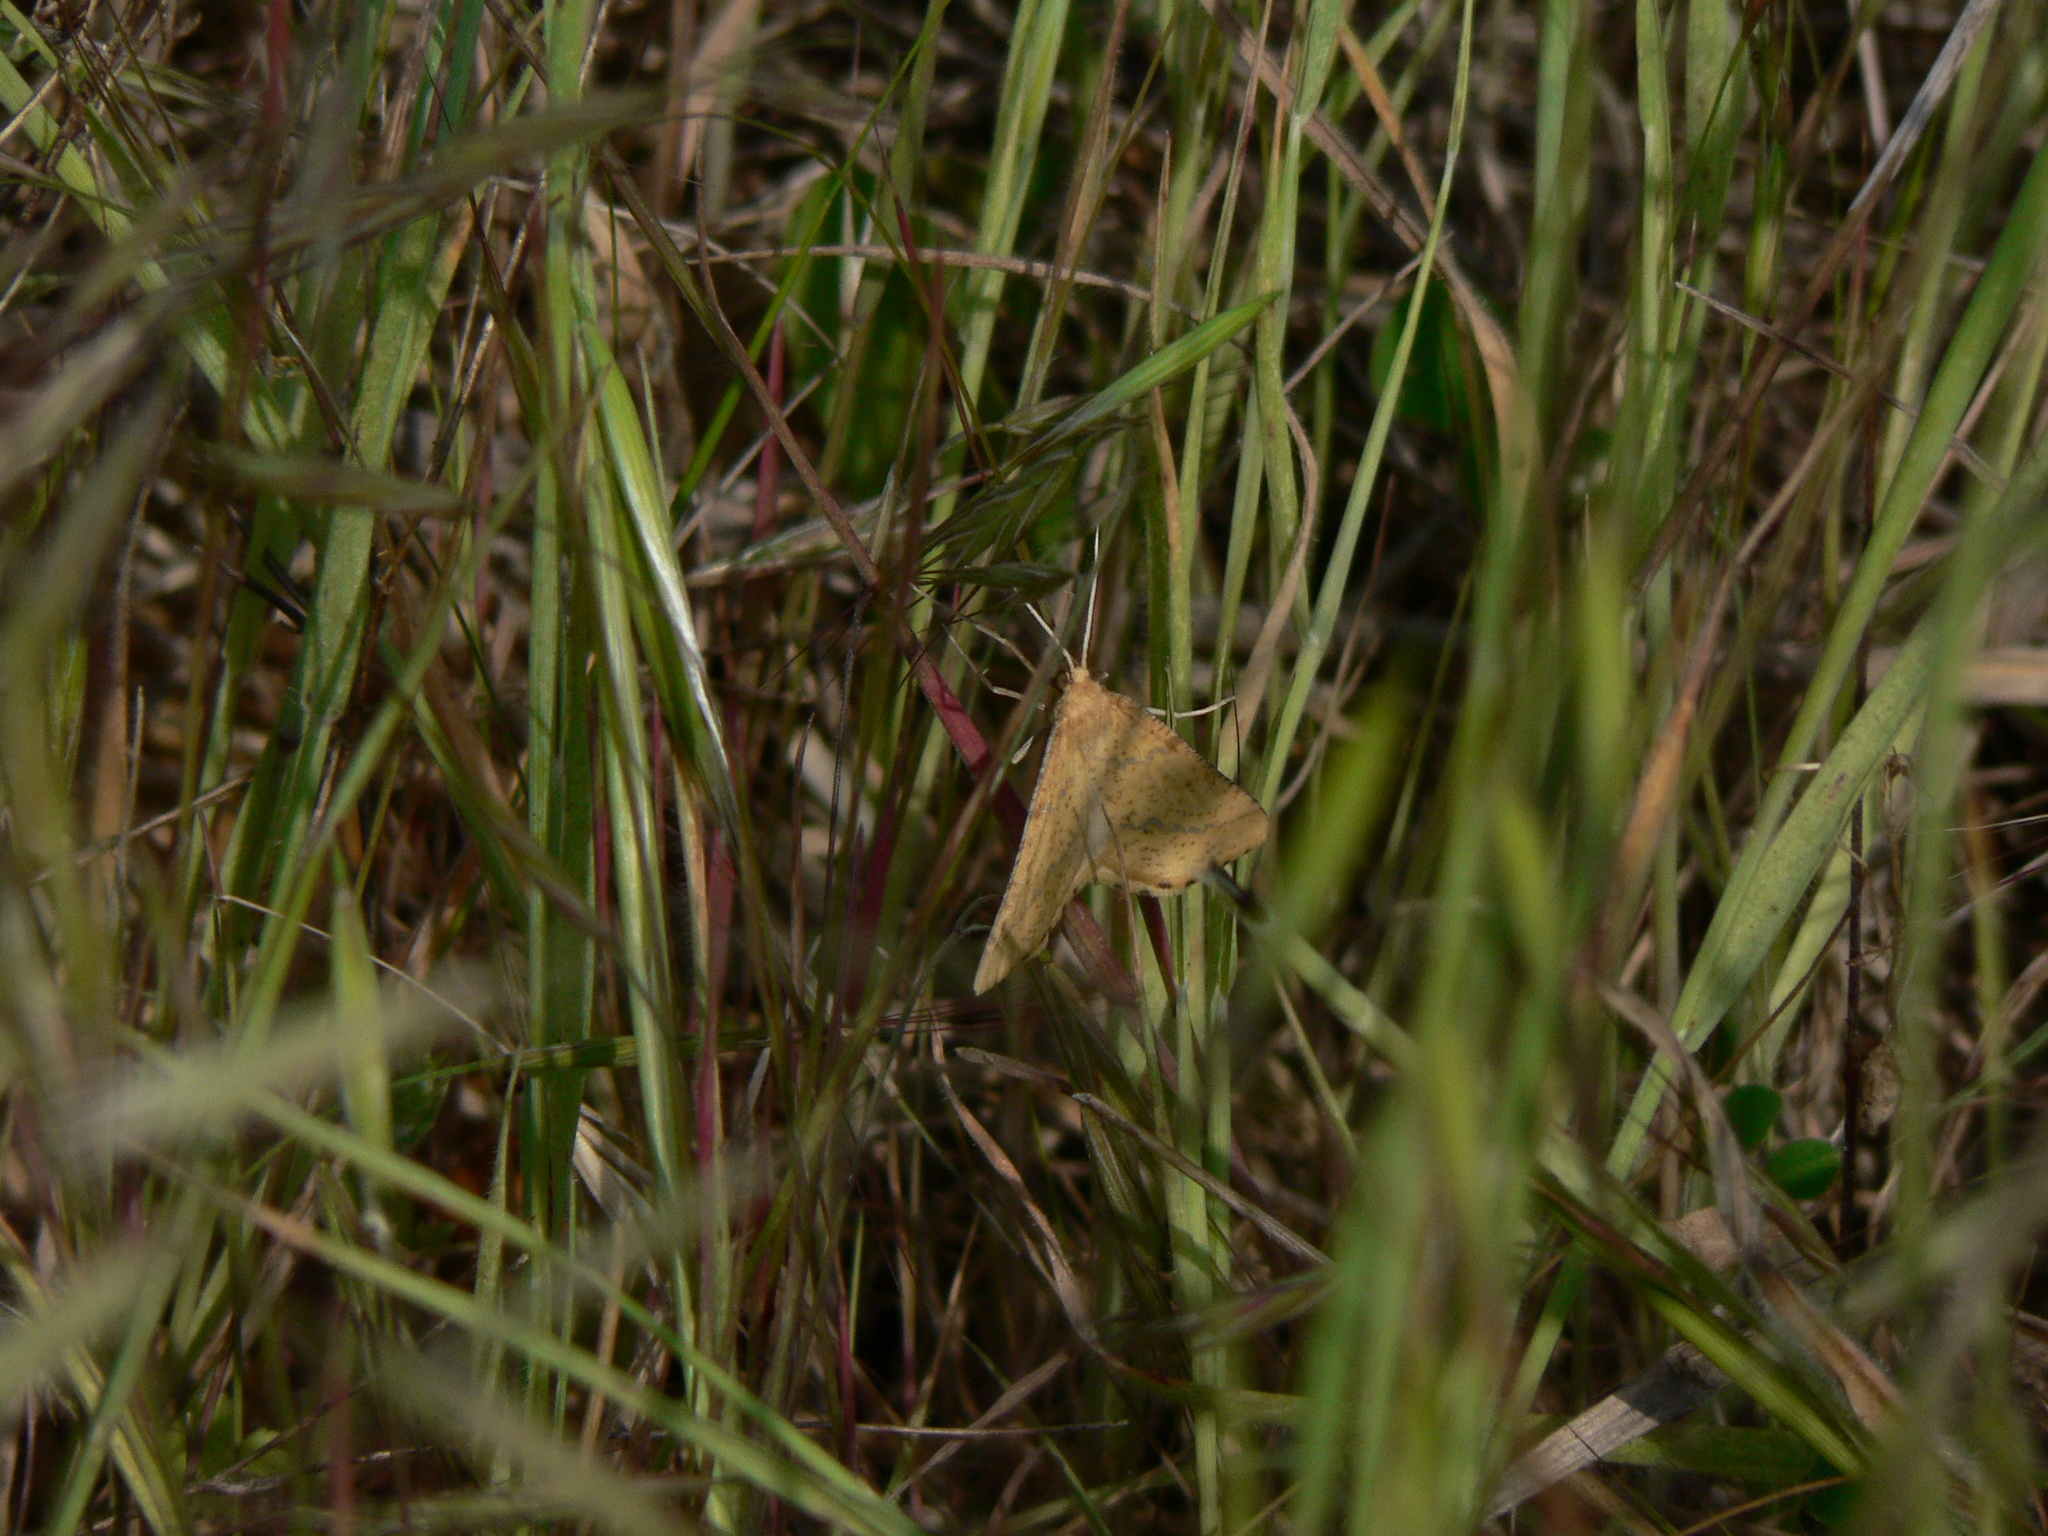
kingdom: Animalia
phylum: Arthropoda
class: Insecta
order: Lepidoptera
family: Geometridae
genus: Aspitates
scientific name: Aspitates ochrearia
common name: Yellow belle
